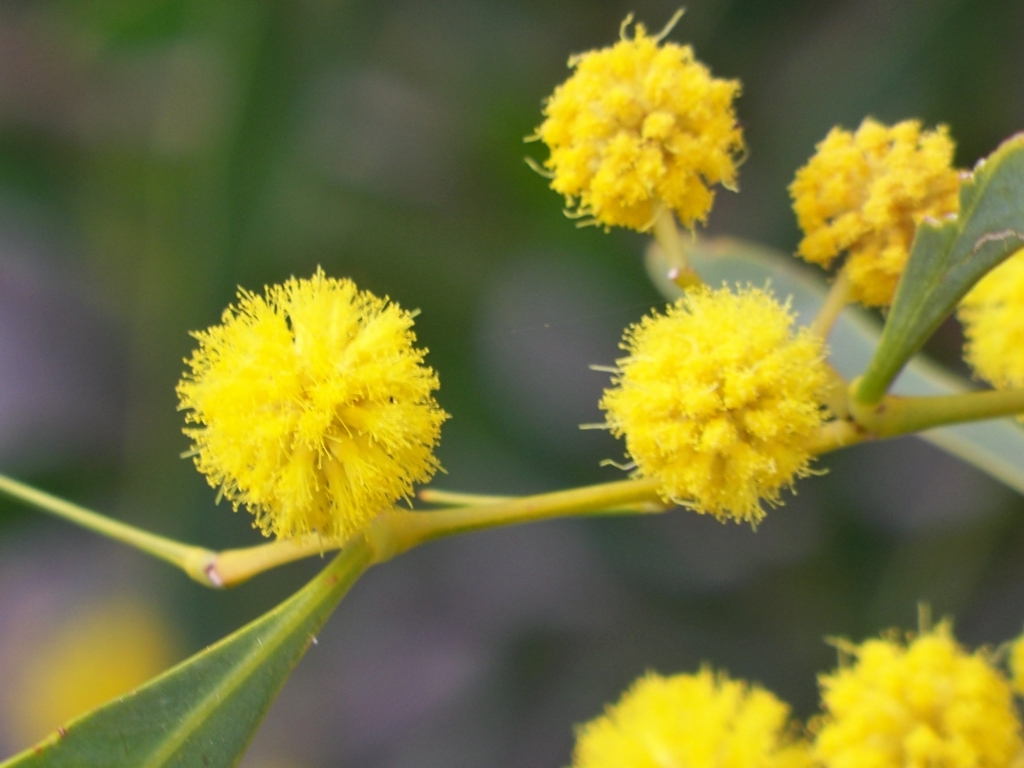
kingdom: Plantae
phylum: Tracheophyta
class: Magnoliopsida
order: Fabales
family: Fabaceae
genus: Acacia
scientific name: Acacia retinodes
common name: Silver wattle
